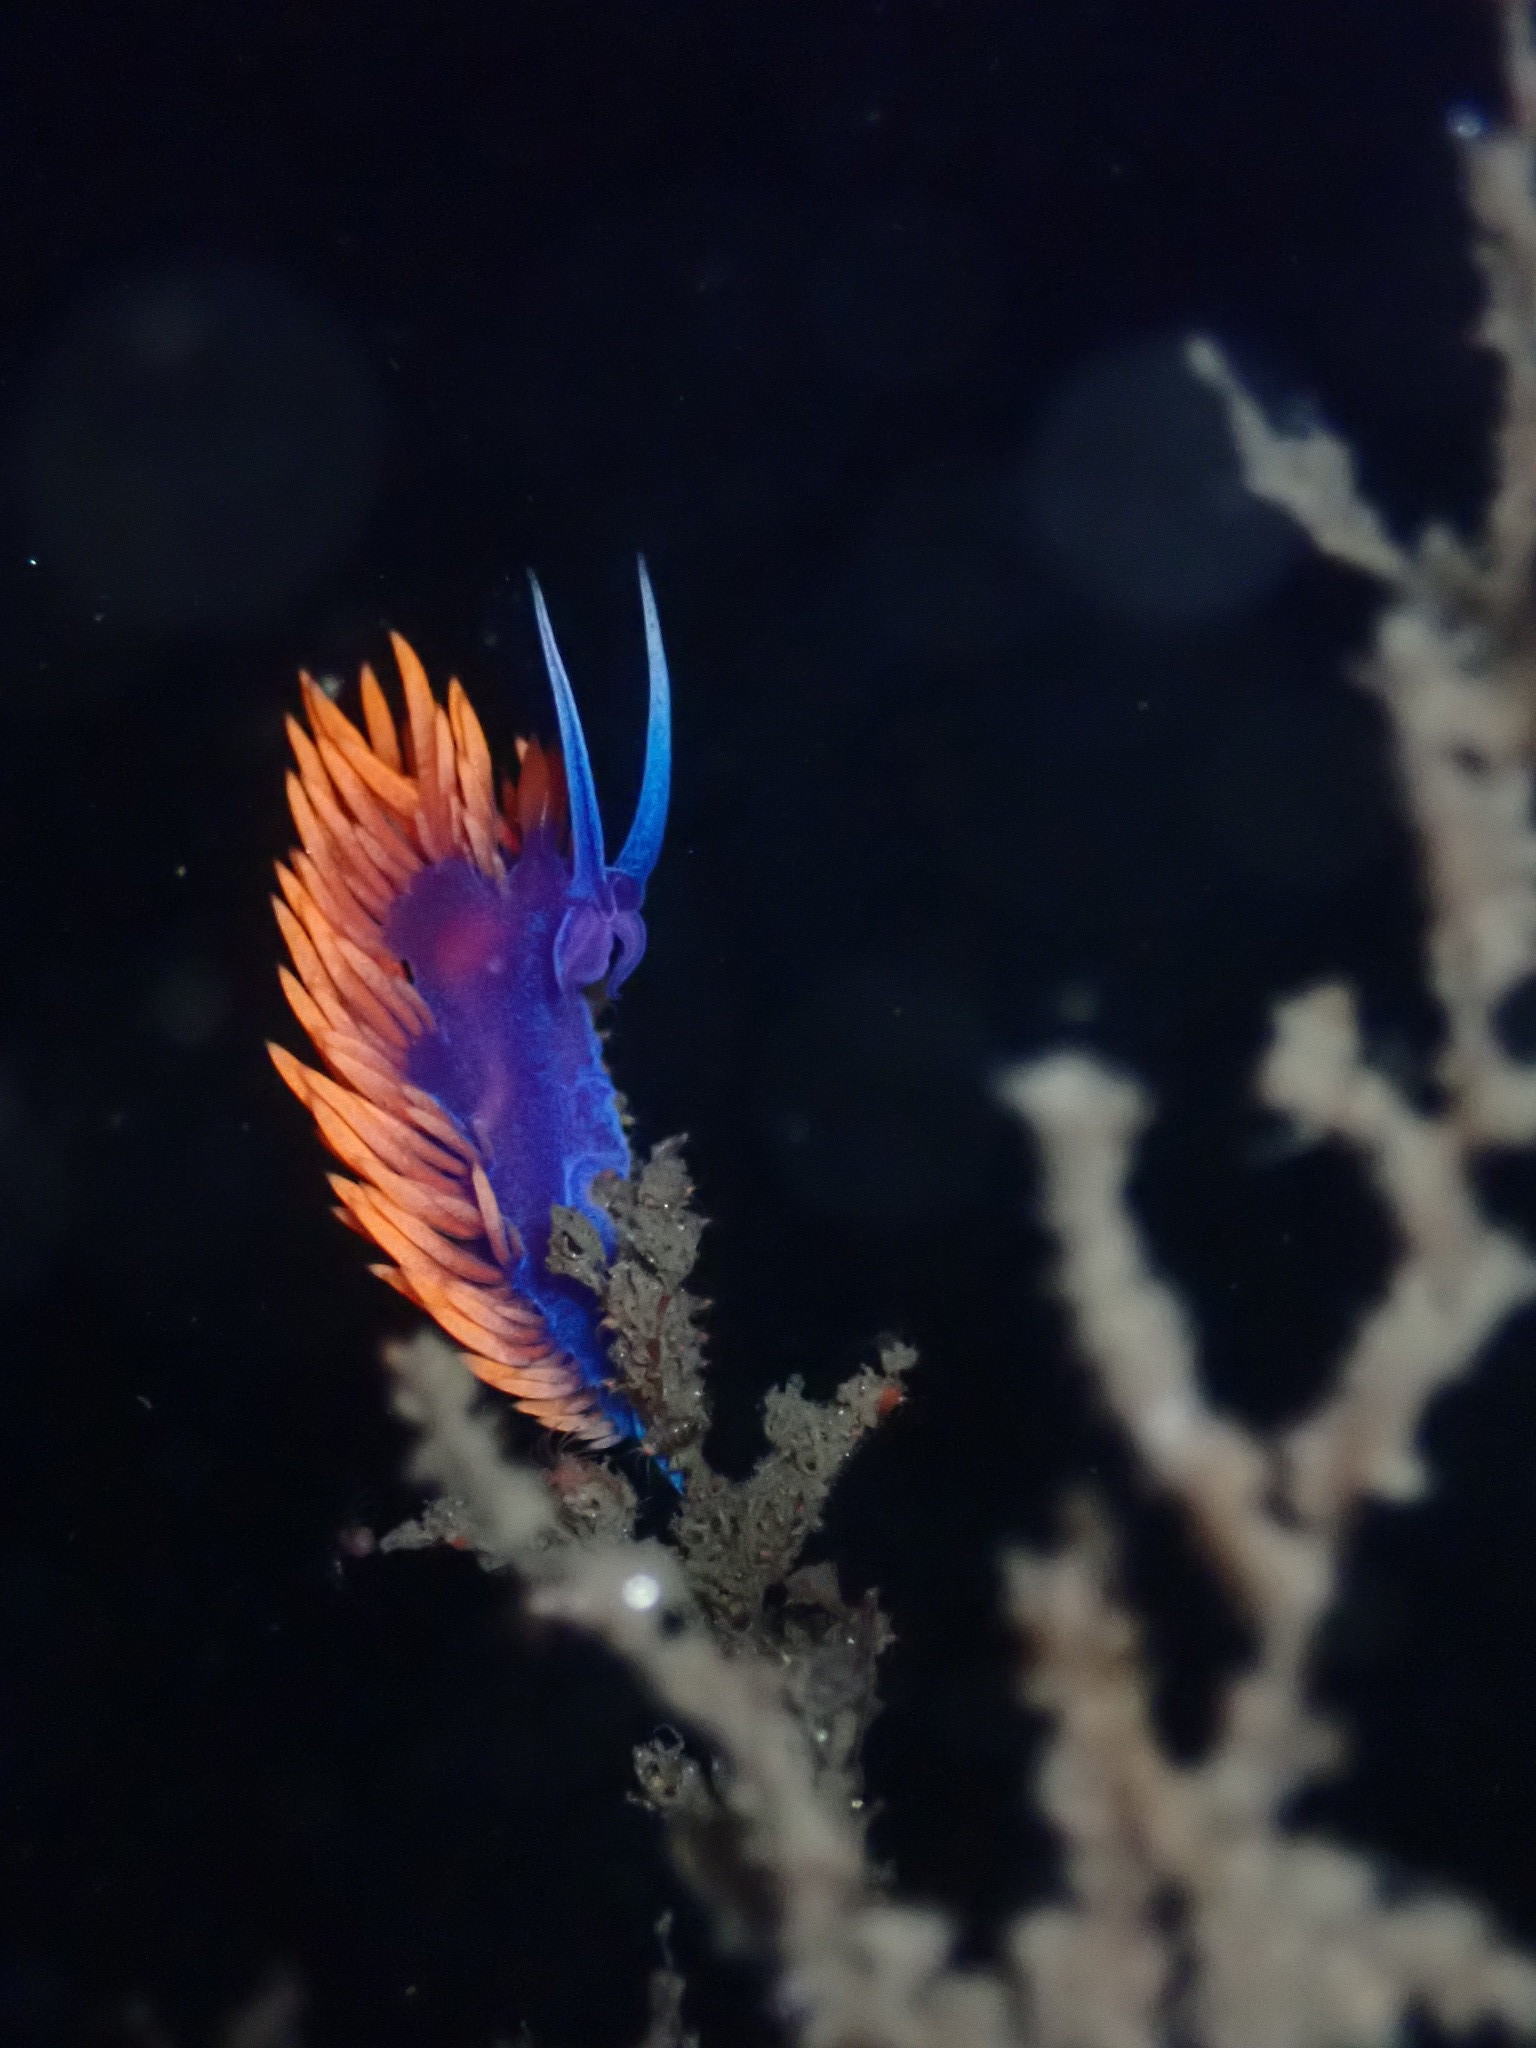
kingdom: Animalia
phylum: Mollusca
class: Gastropoda
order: Nudibranchia
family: Flabellinopsidae
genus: Flabellinopsis
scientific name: Flabellinopsis iodinea
